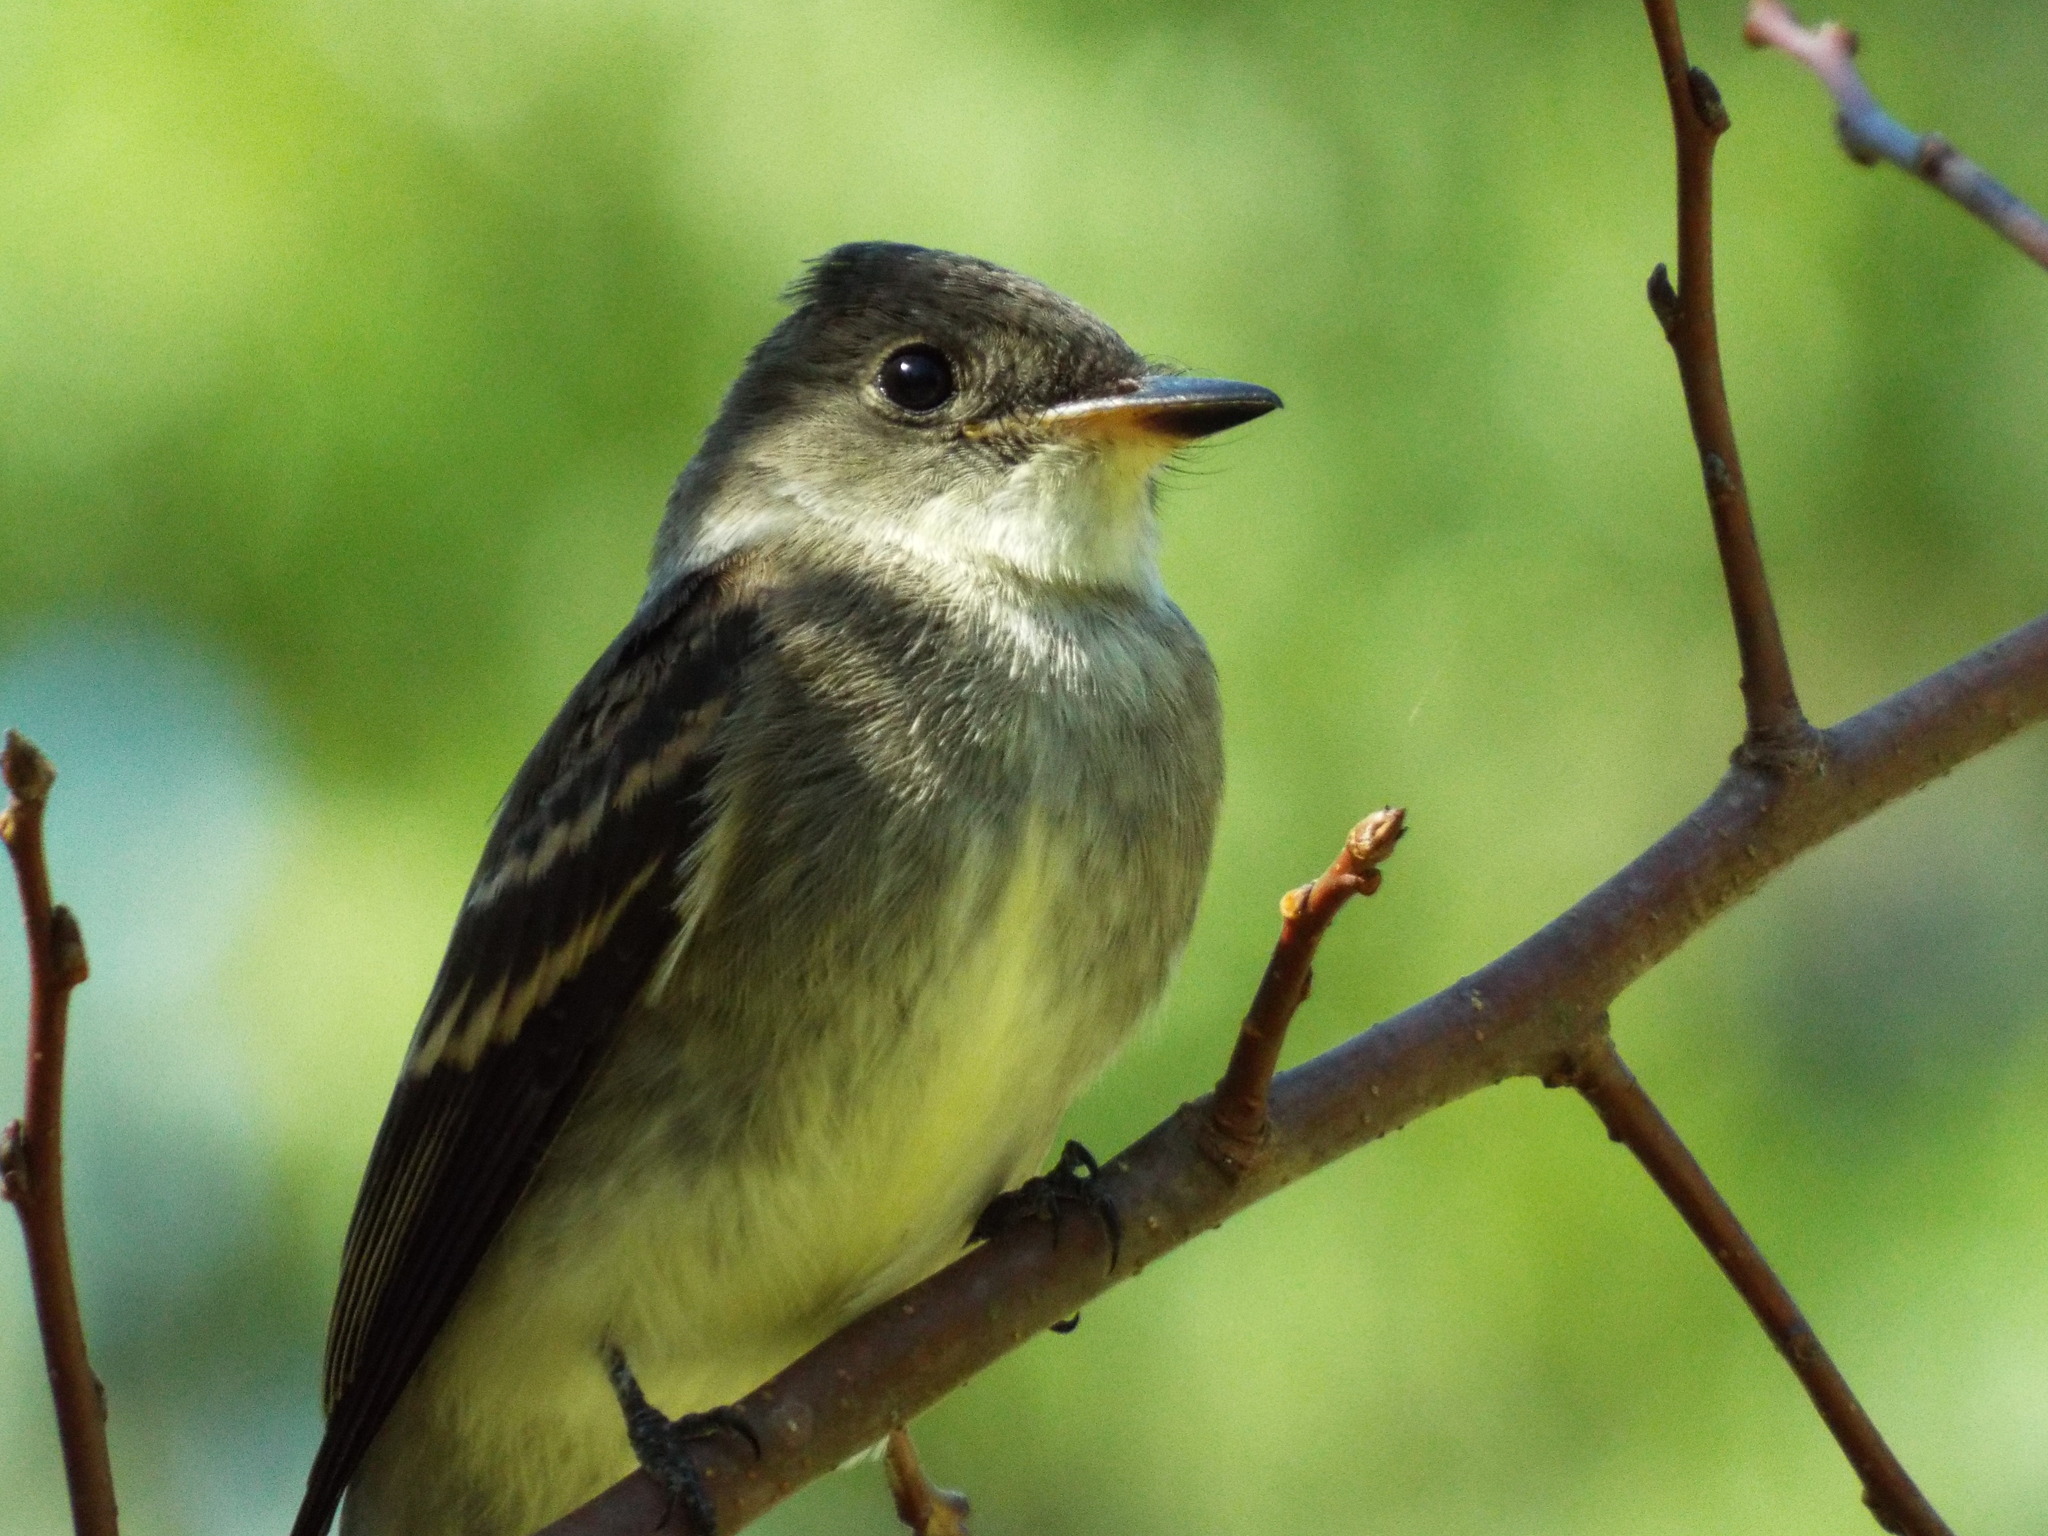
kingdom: Animalia
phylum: Chordata
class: Aves
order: Passeriformes
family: Tyrannidae
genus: Contopus
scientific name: Contopus virens
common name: Eastern wood-pewee
